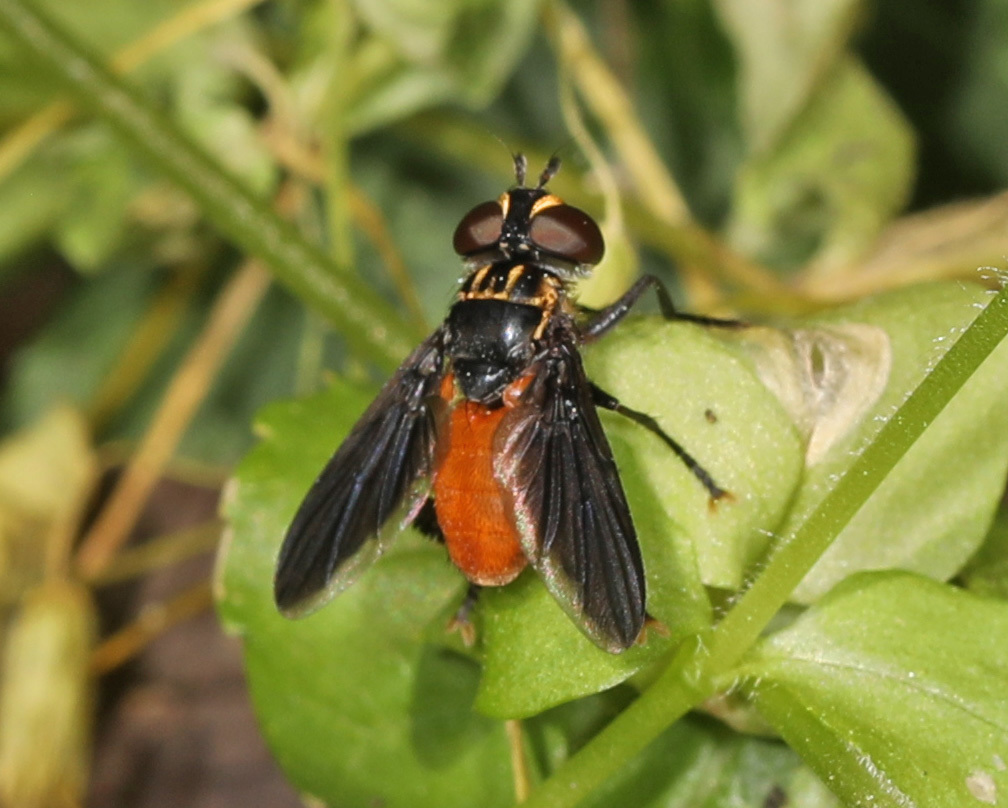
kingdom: Animalia
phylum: Arthropoda
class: Insecta
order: Diptera
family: Tachinidae
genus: Trichopoda
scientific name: Trichopoda pennipes
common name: Tachinid fly
